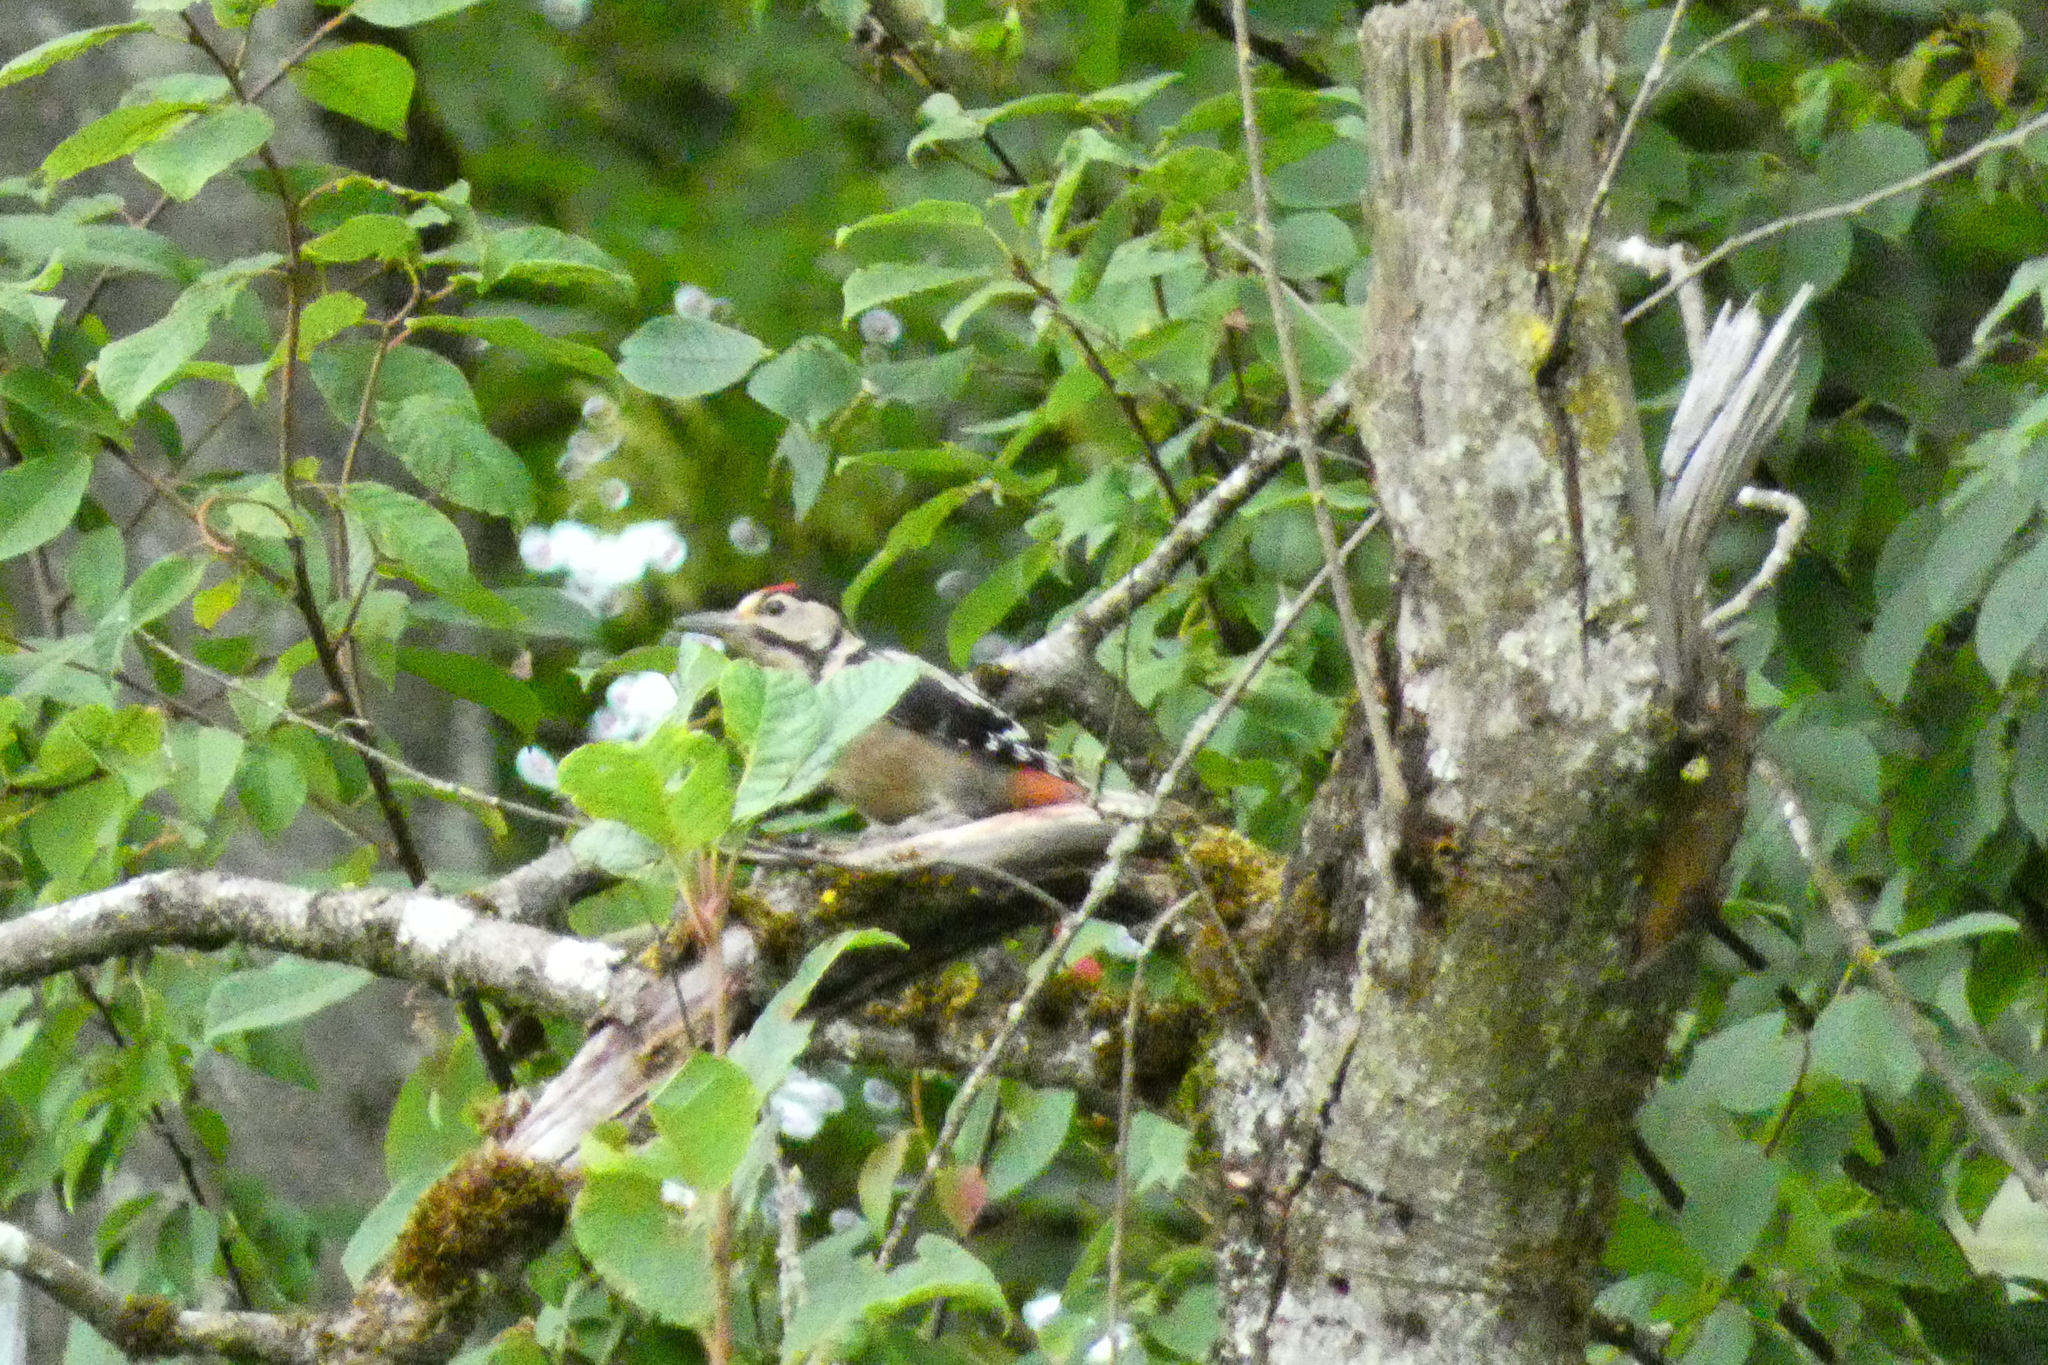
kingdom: Animalia
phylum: Chordata
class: Aves
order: Piciformes
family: Picidae
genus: Dendrocopos
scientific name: Dendrocopos major
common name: Great spotted woodpecker
